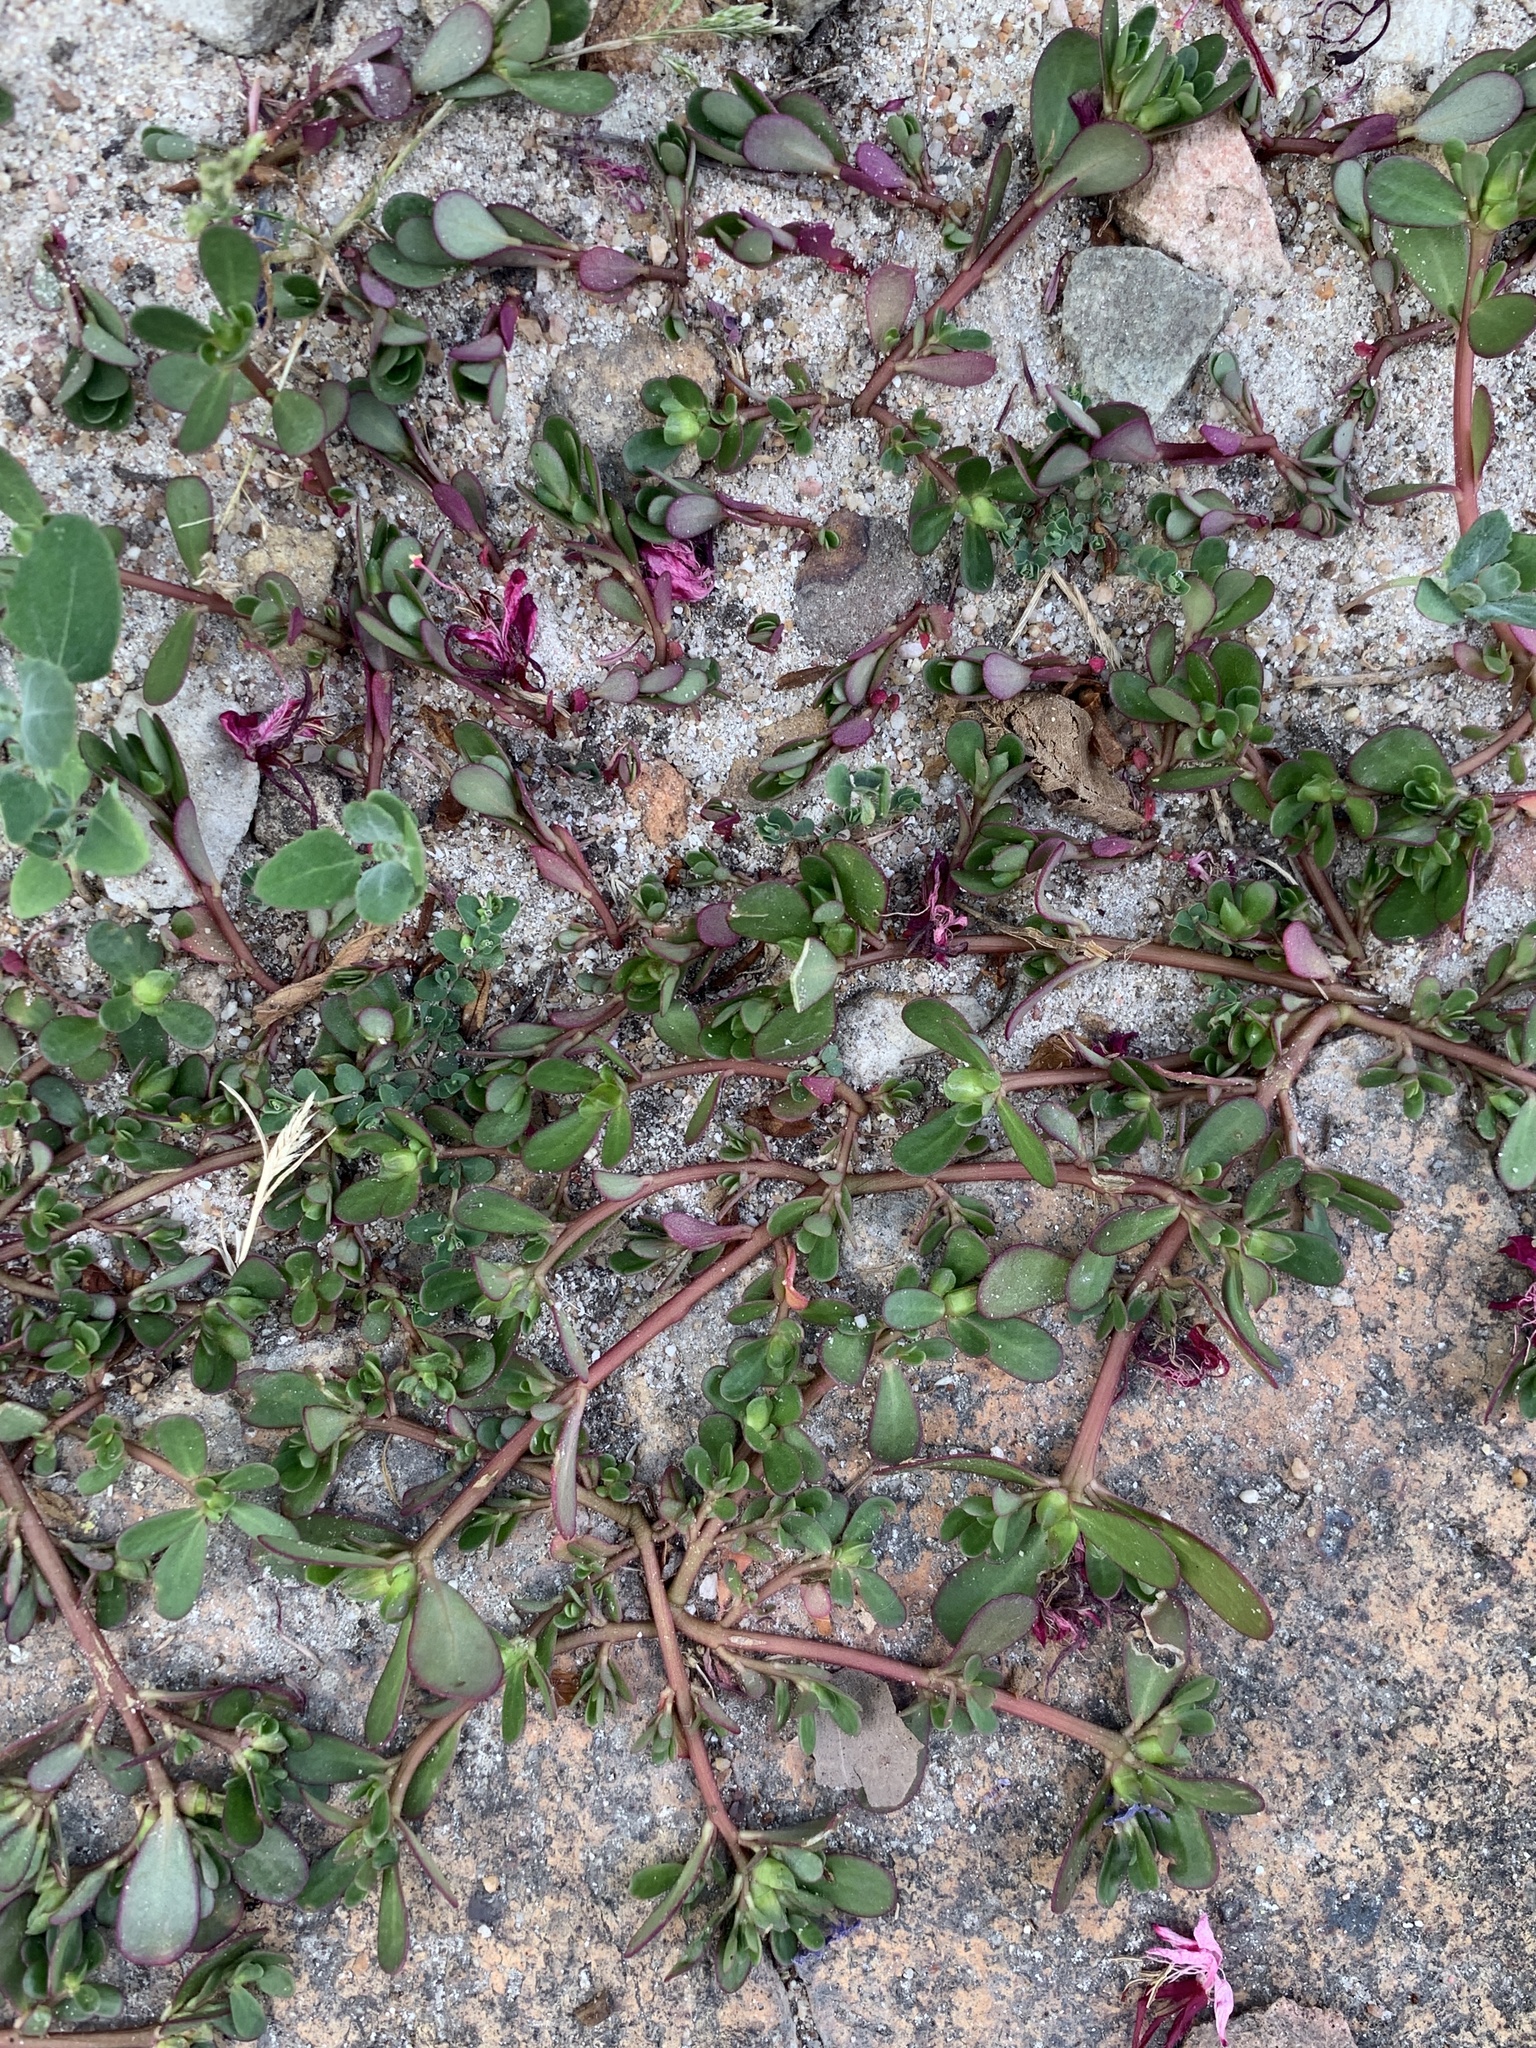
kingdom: Plantae
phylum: Tracheophyta
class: Magnoliopsida
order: Caryophyllales
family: Portulacaceae
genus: Portulaca
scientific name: Portulaca oleracea
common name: Common purslane
